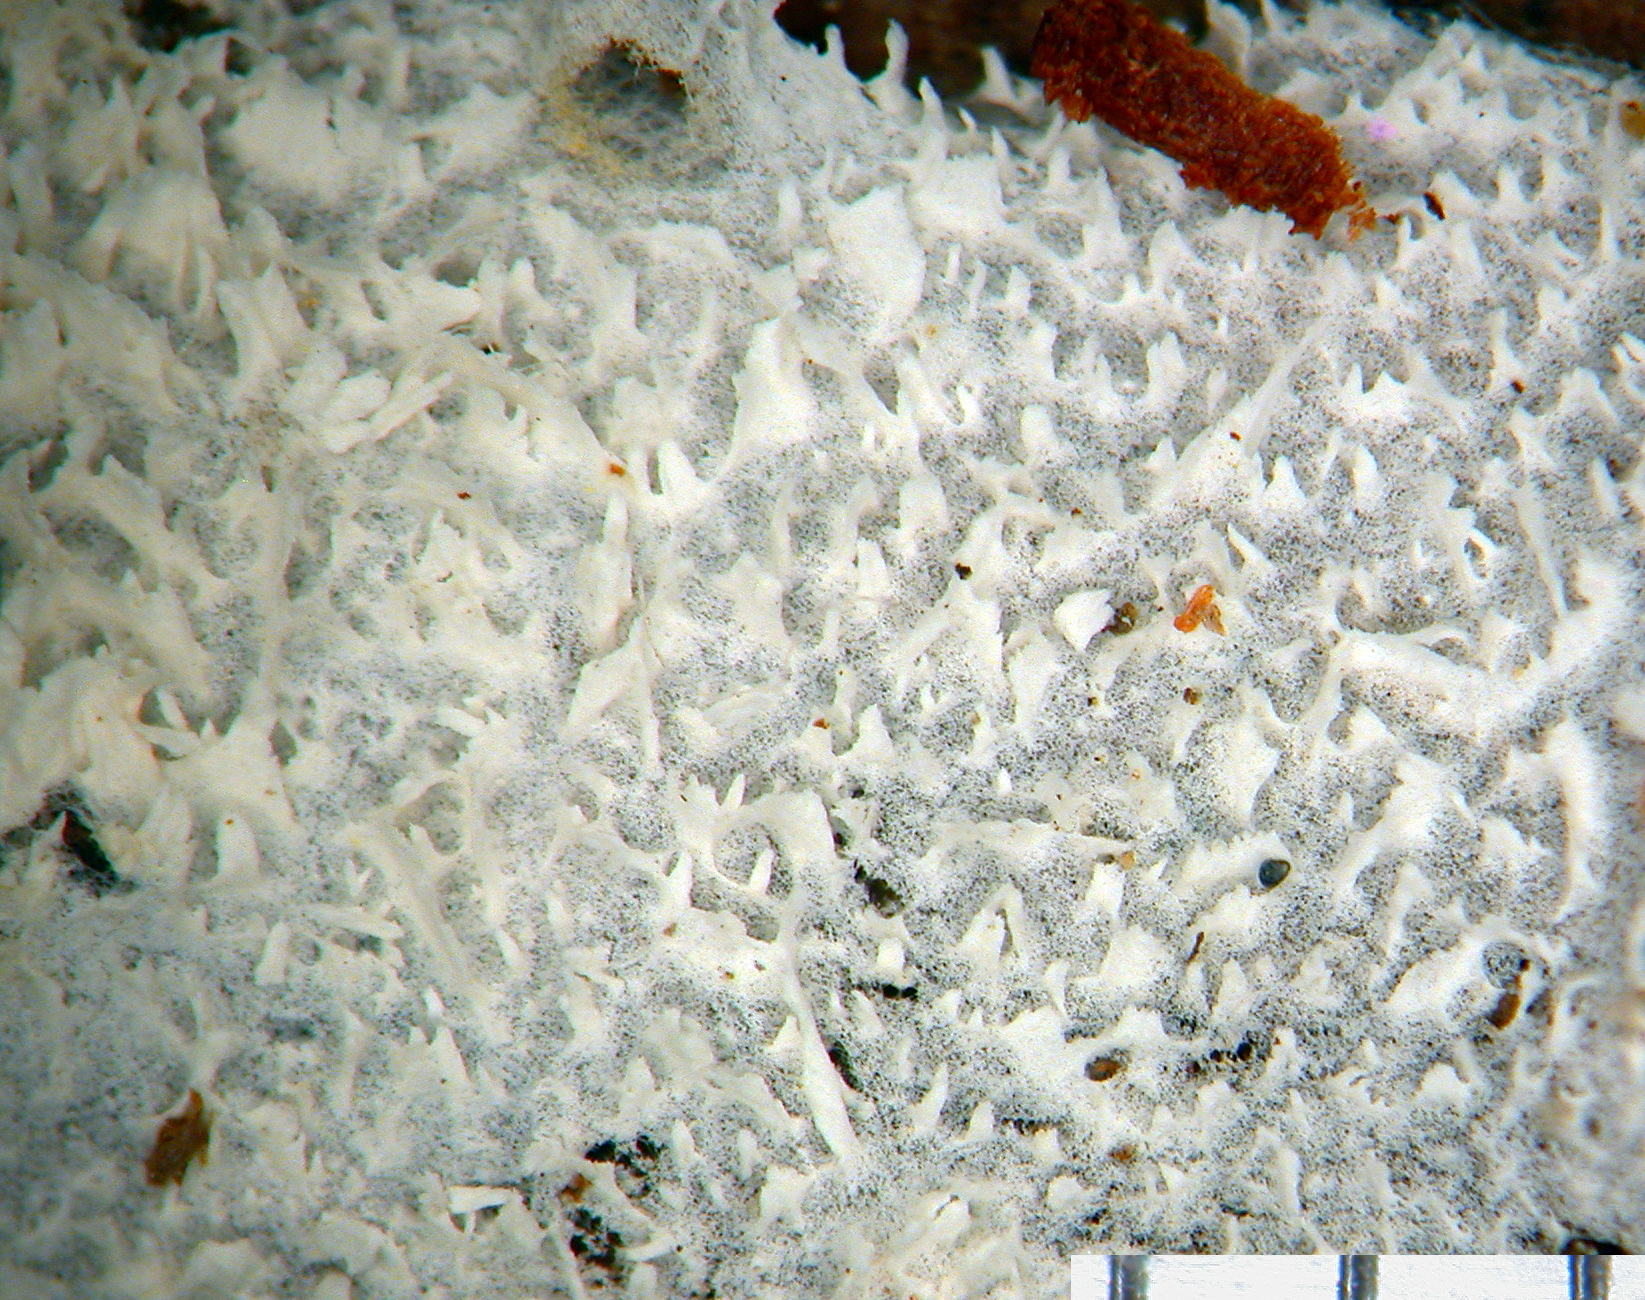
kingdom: Fungi
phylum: Basidiomycota
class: Agaricomycetes
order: Cantharellales
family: Hydnaceae
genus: Sistotrema
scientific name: Sistotrema muscicola
